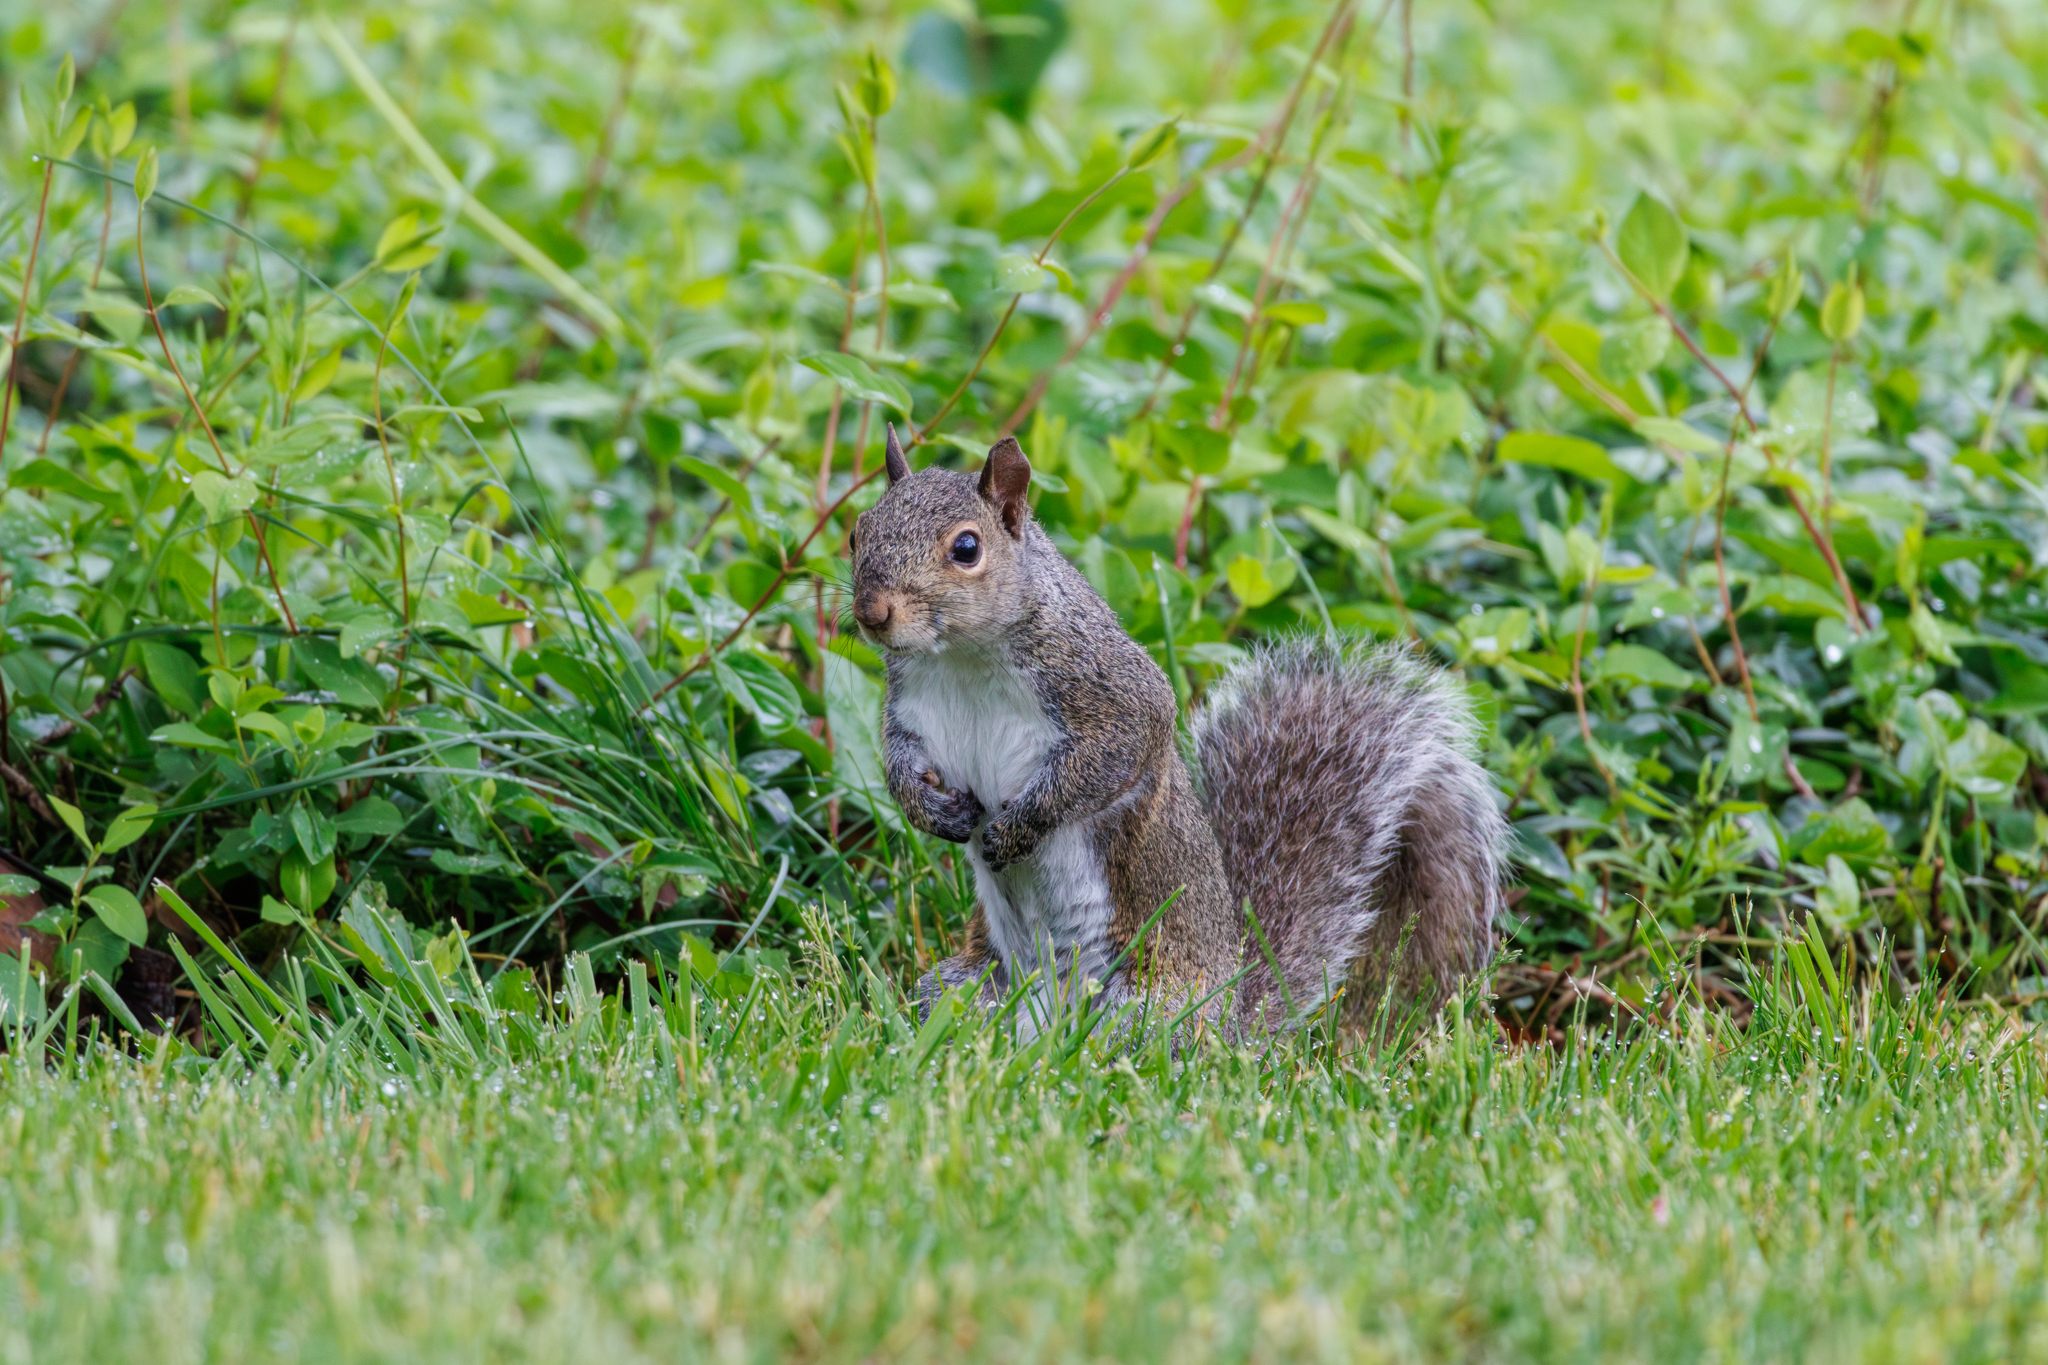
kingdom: Animalia
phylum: Chordata
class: Mammalia
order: Rodentia
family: Sciuridae
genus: Sciurus
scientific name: Sciurus carolinensis
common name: Eastern gray squirrel
